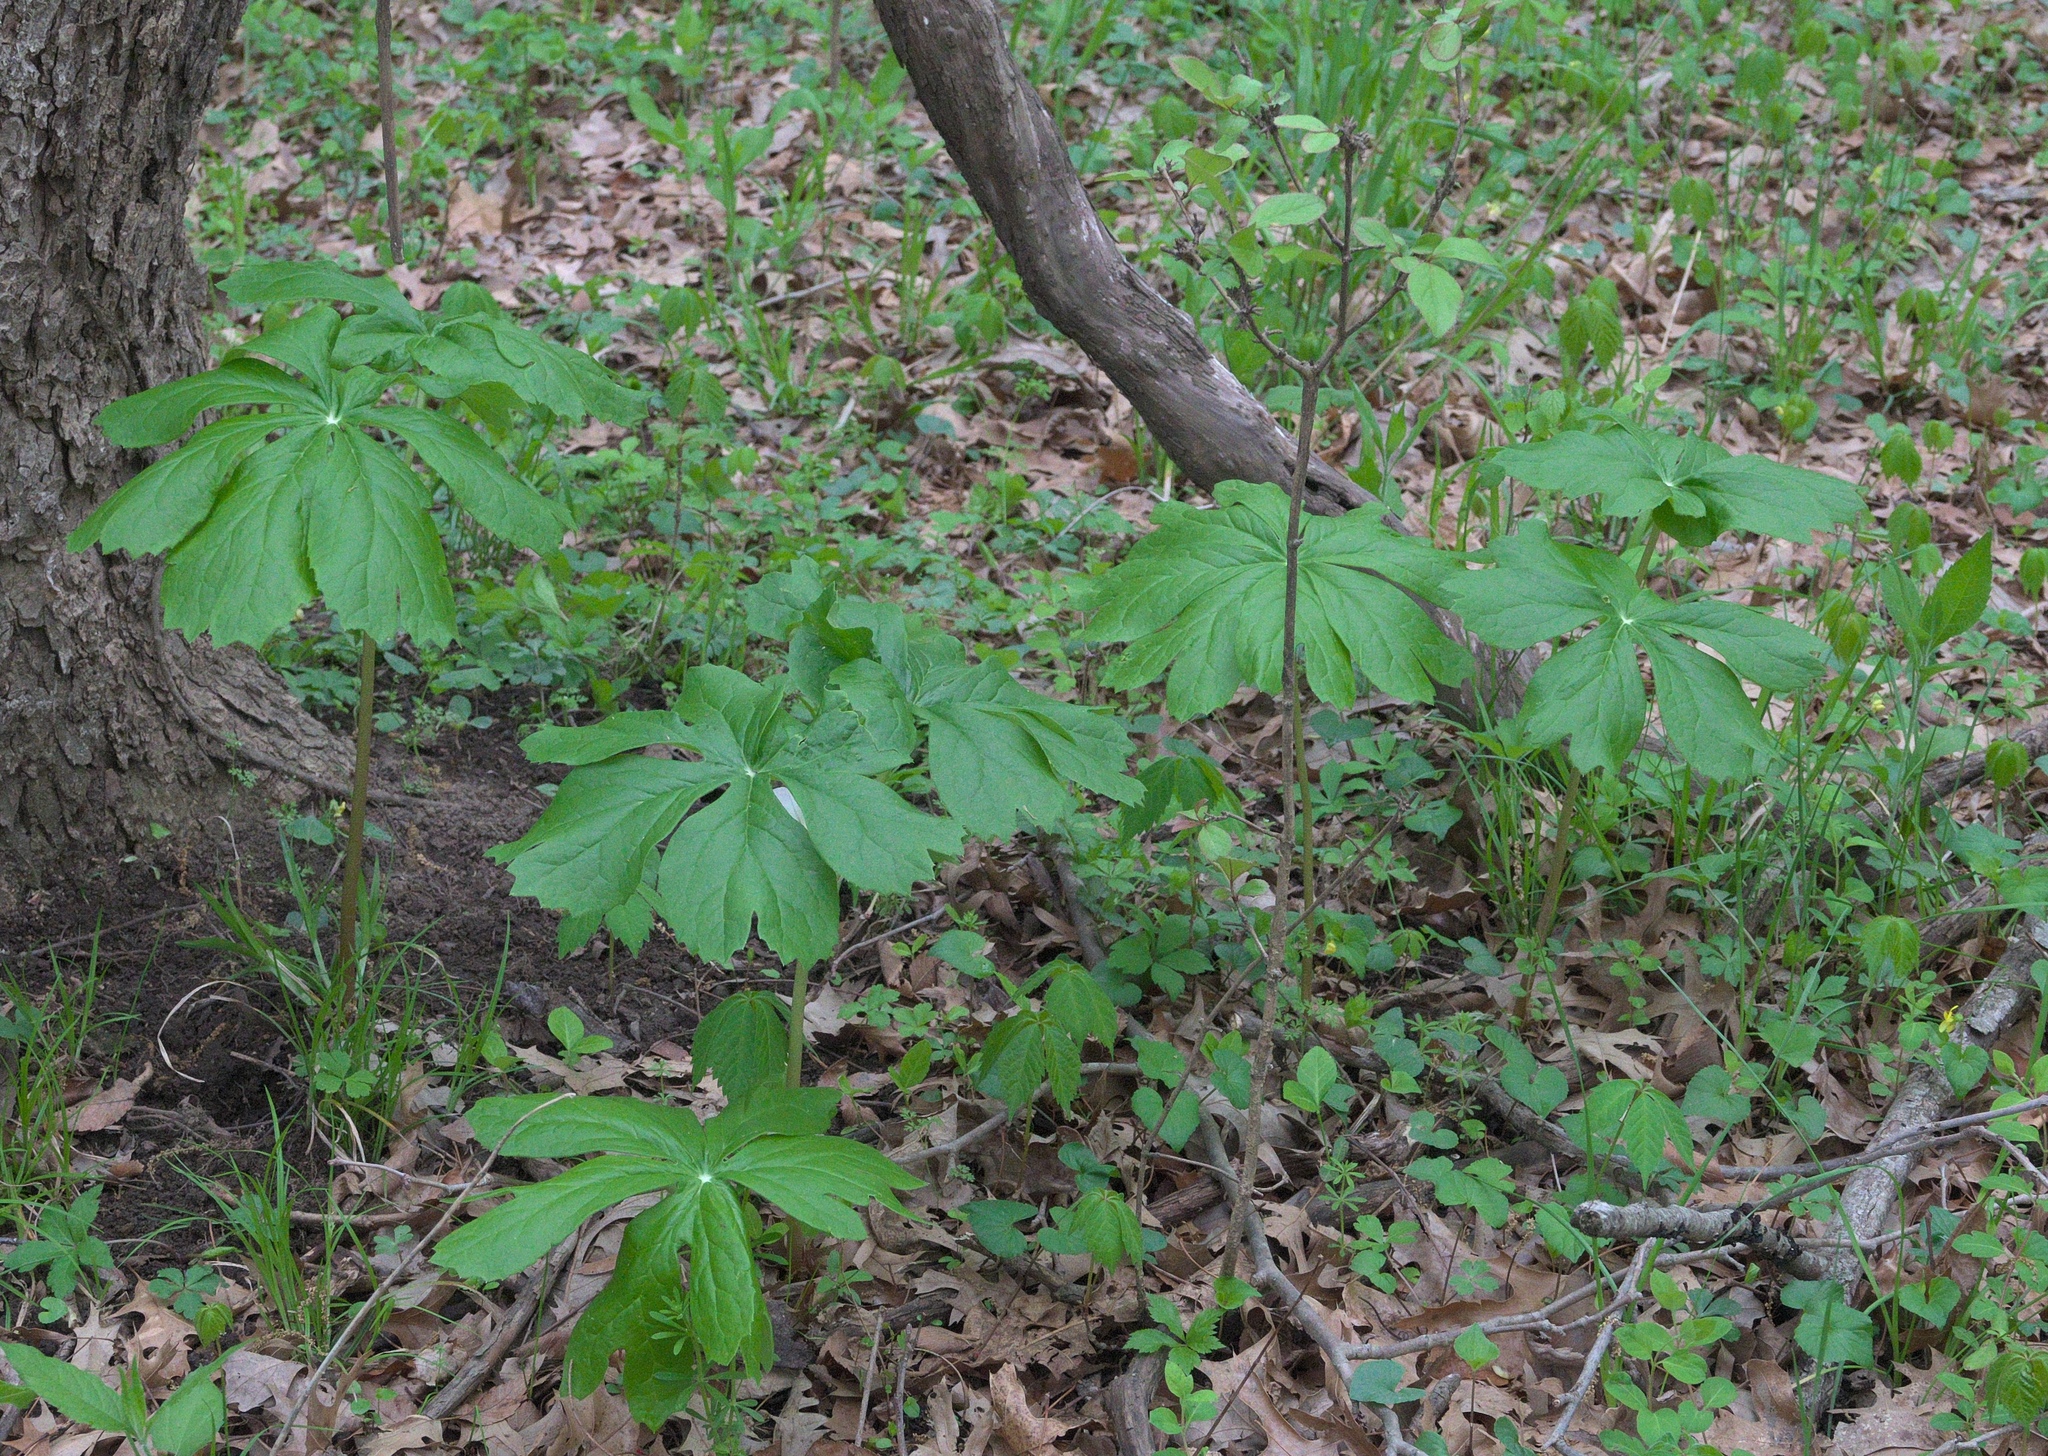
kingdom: Plantae
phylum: Tracheophyta
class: Magnoliopsida
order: Ranunculales
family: Berberidaceae
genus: Podophyllum
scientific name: Podophyllum peltatum
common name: Wild mandrake
